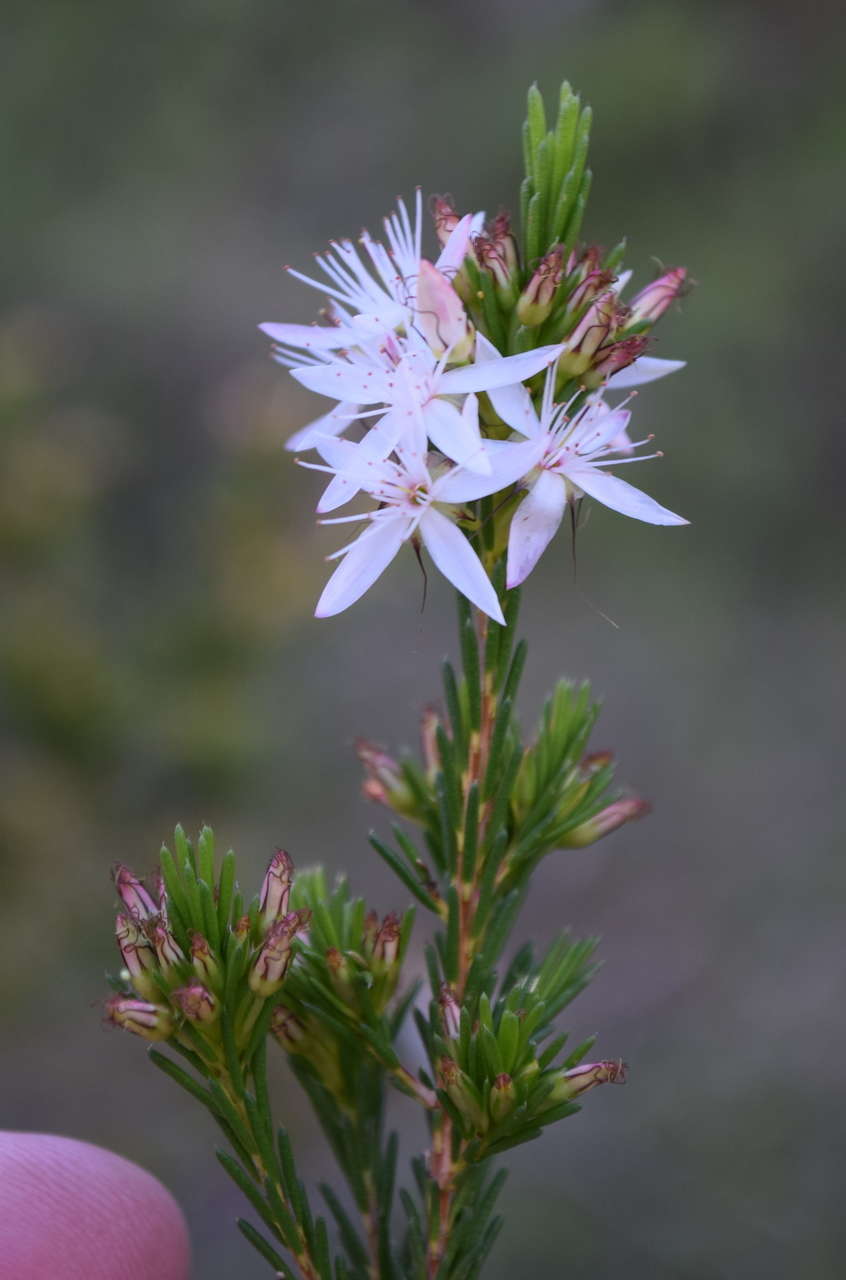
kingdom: Plantae
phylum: Tracheophyta
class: Magnoliopsida
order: Myrtales
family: Myrtaceae
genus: Calytrix
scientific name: Calytrix tetragona
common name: Common fringe myrtle
